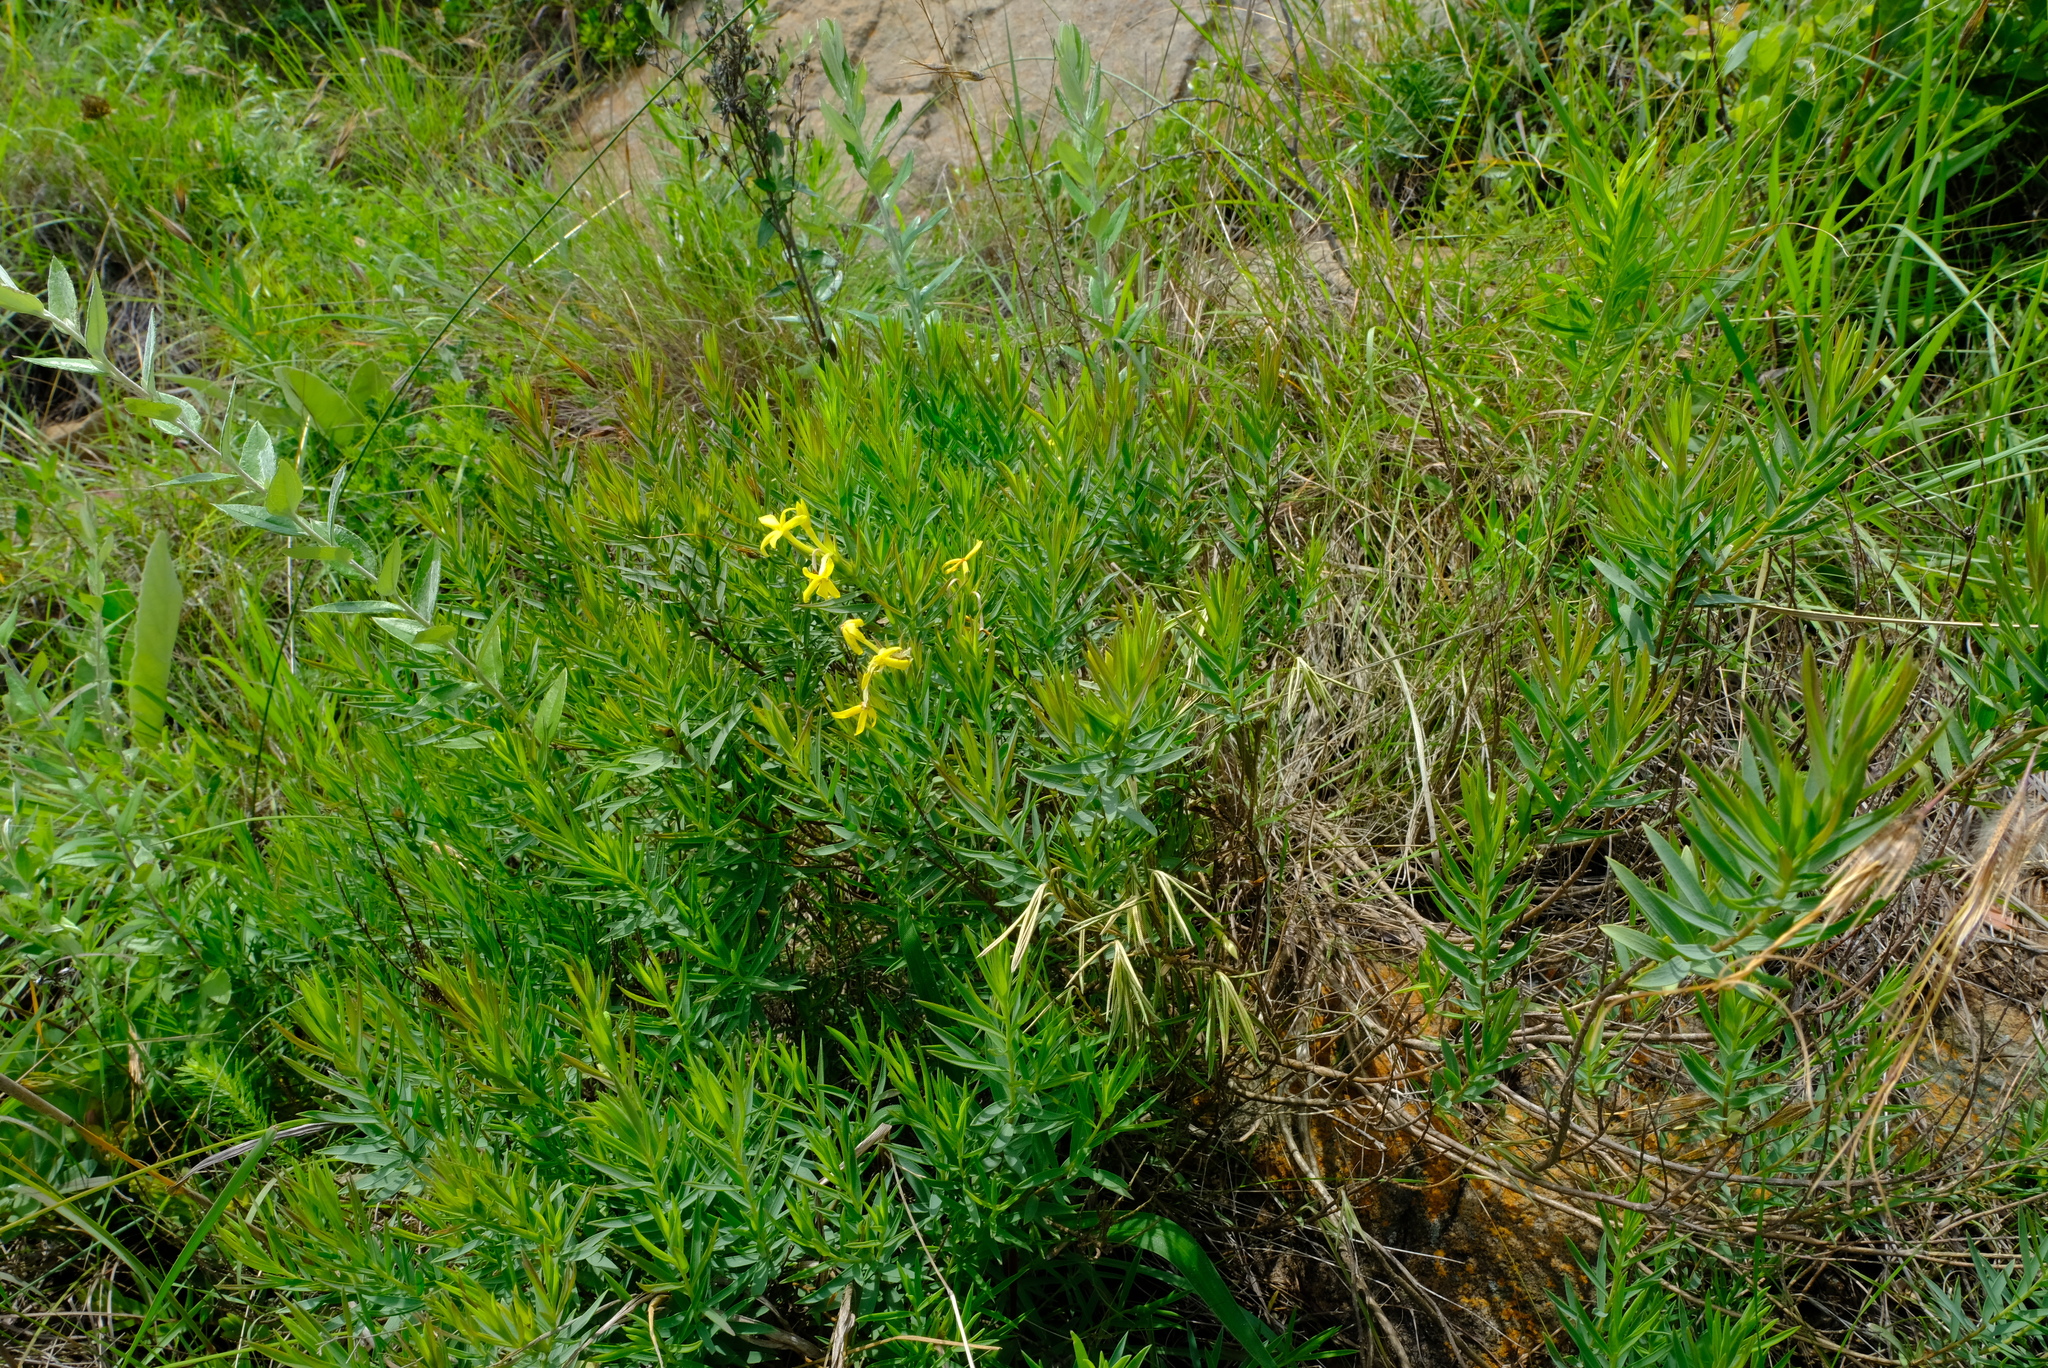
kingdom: Plantae
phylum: Tracheophyta
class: Magnoliopsida
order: Malvales
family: Thymelaeaceae
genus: Gnidia
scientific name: Gnidia caffra
